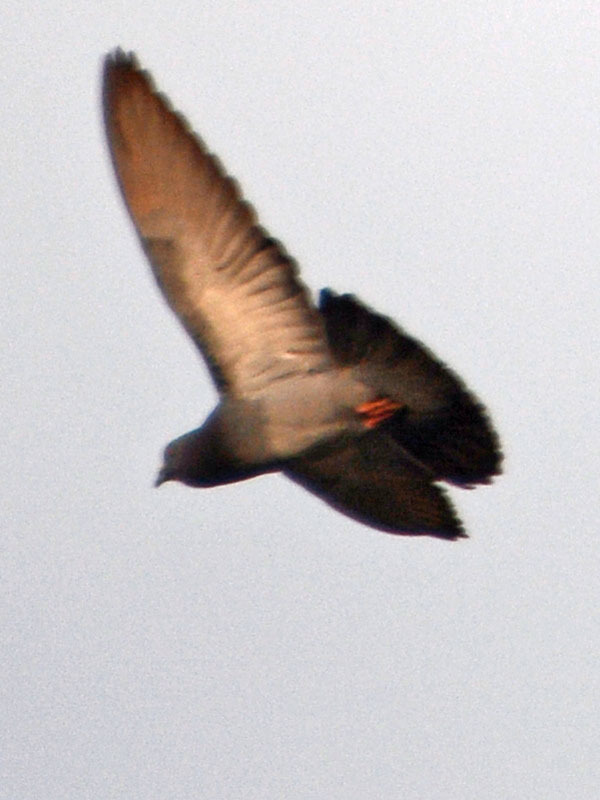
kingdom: Animalia
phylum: Chordata
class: Aves
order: Columbiformes
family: Columbidae
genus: Columba
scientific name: Columba livia
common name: Rock pigeon
